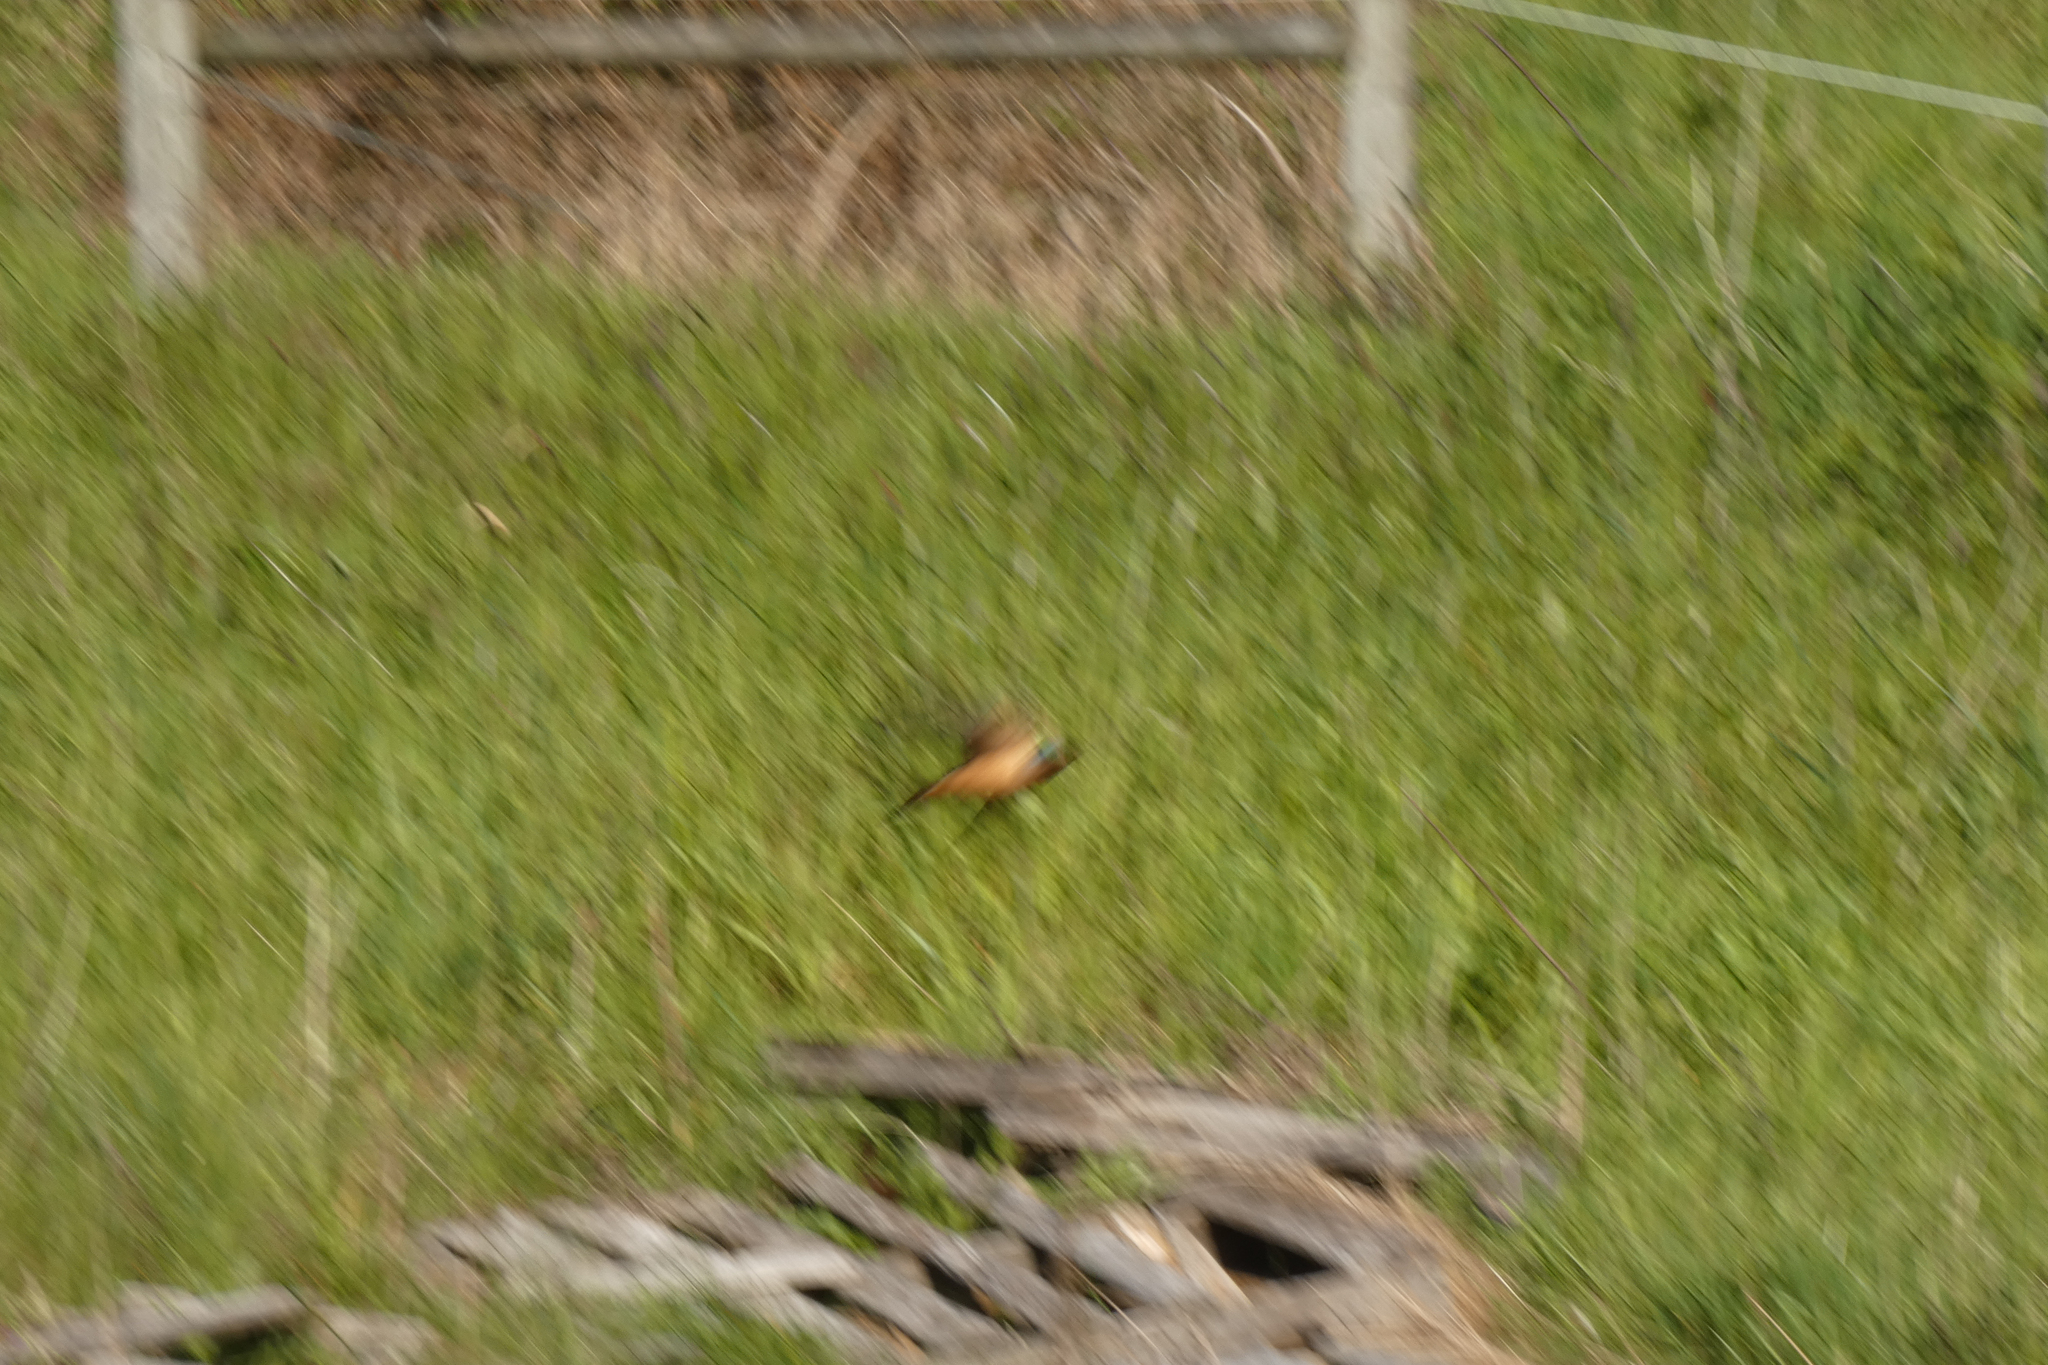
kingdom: Animalia
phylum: Chordata
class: Aves
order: Passeriformes
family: Hirundinidae
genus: Hirundo
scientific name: Hirundo rustica
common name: Barn swallow
